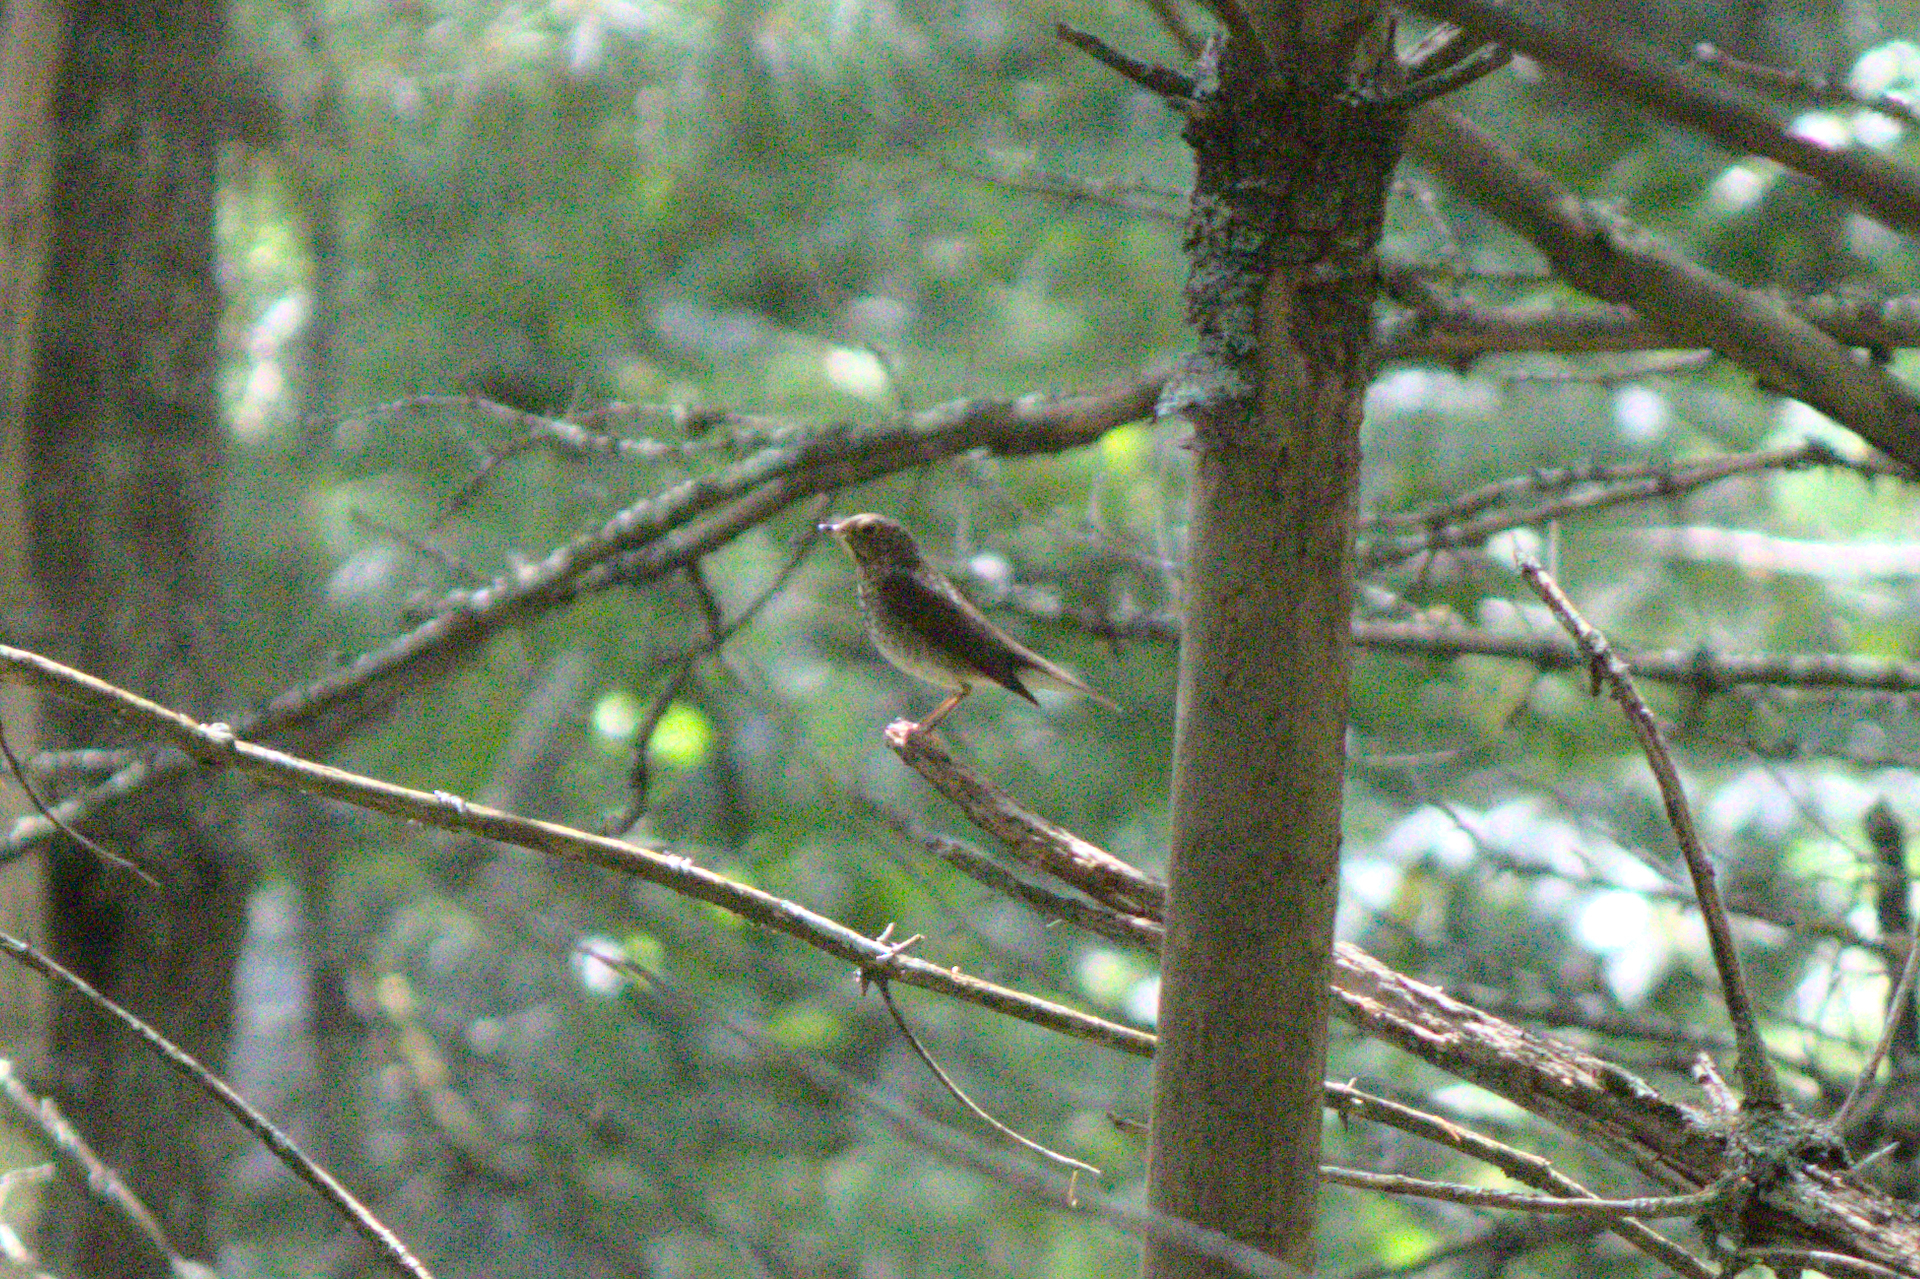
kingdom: Animalia
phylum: Chordata
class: Aves
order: Passeriformes
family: Turdidae
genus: Catharus
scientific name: Catharus ustulatus
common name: Swainson's thrush
